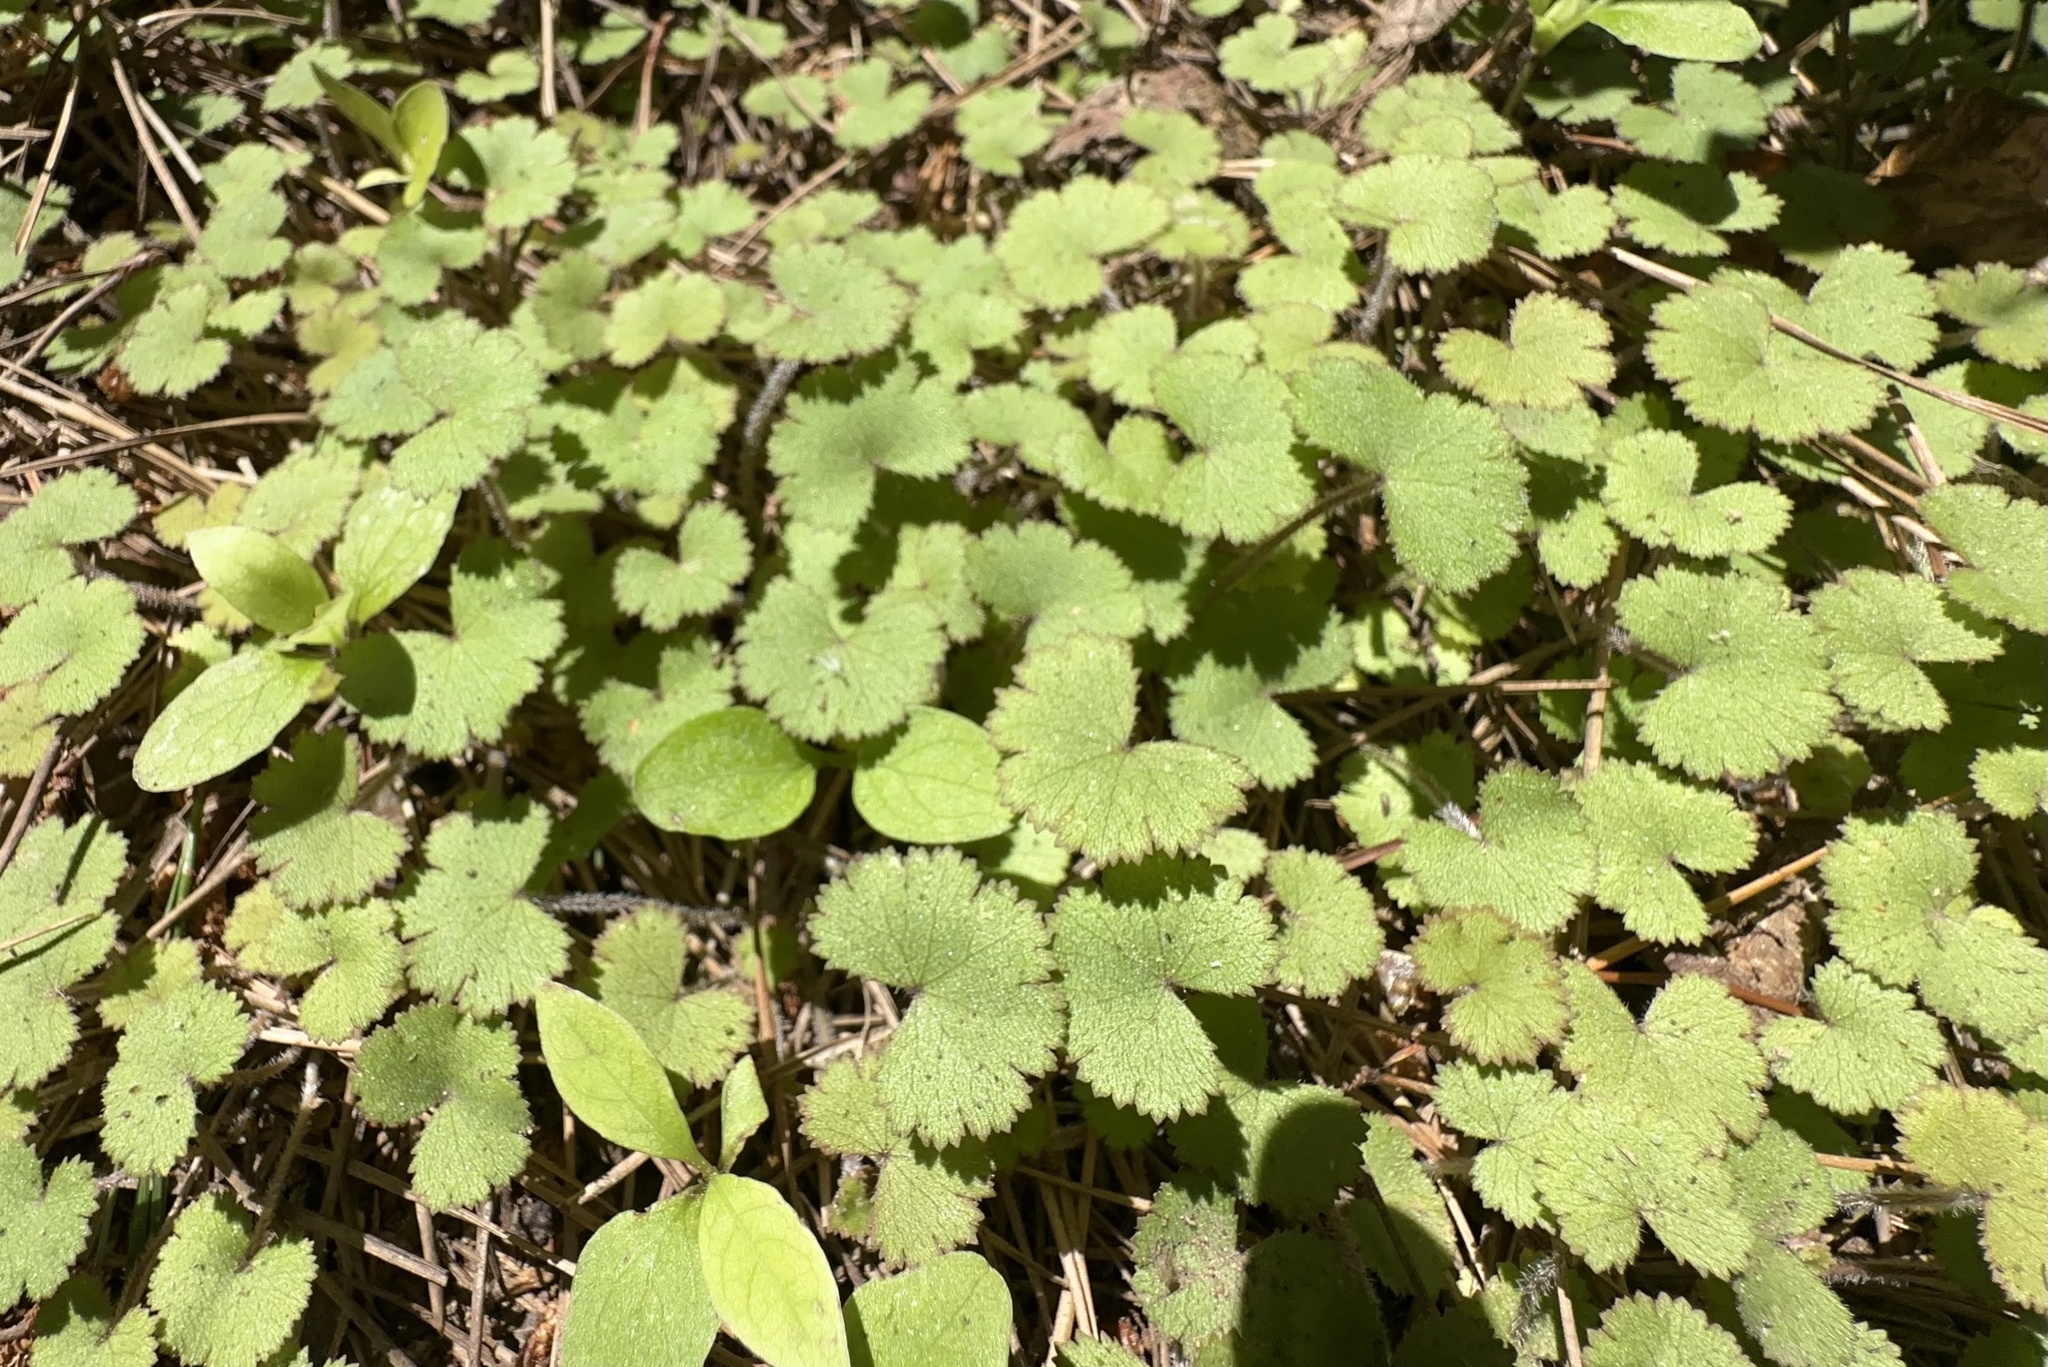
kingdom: Plantae
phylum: Tracheophyta
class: Magnoliopsida
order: Apiales
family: Araliaceae
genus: Hydrocotyle
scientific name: Hydrocotyle moschata
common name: Hairy pennywort
